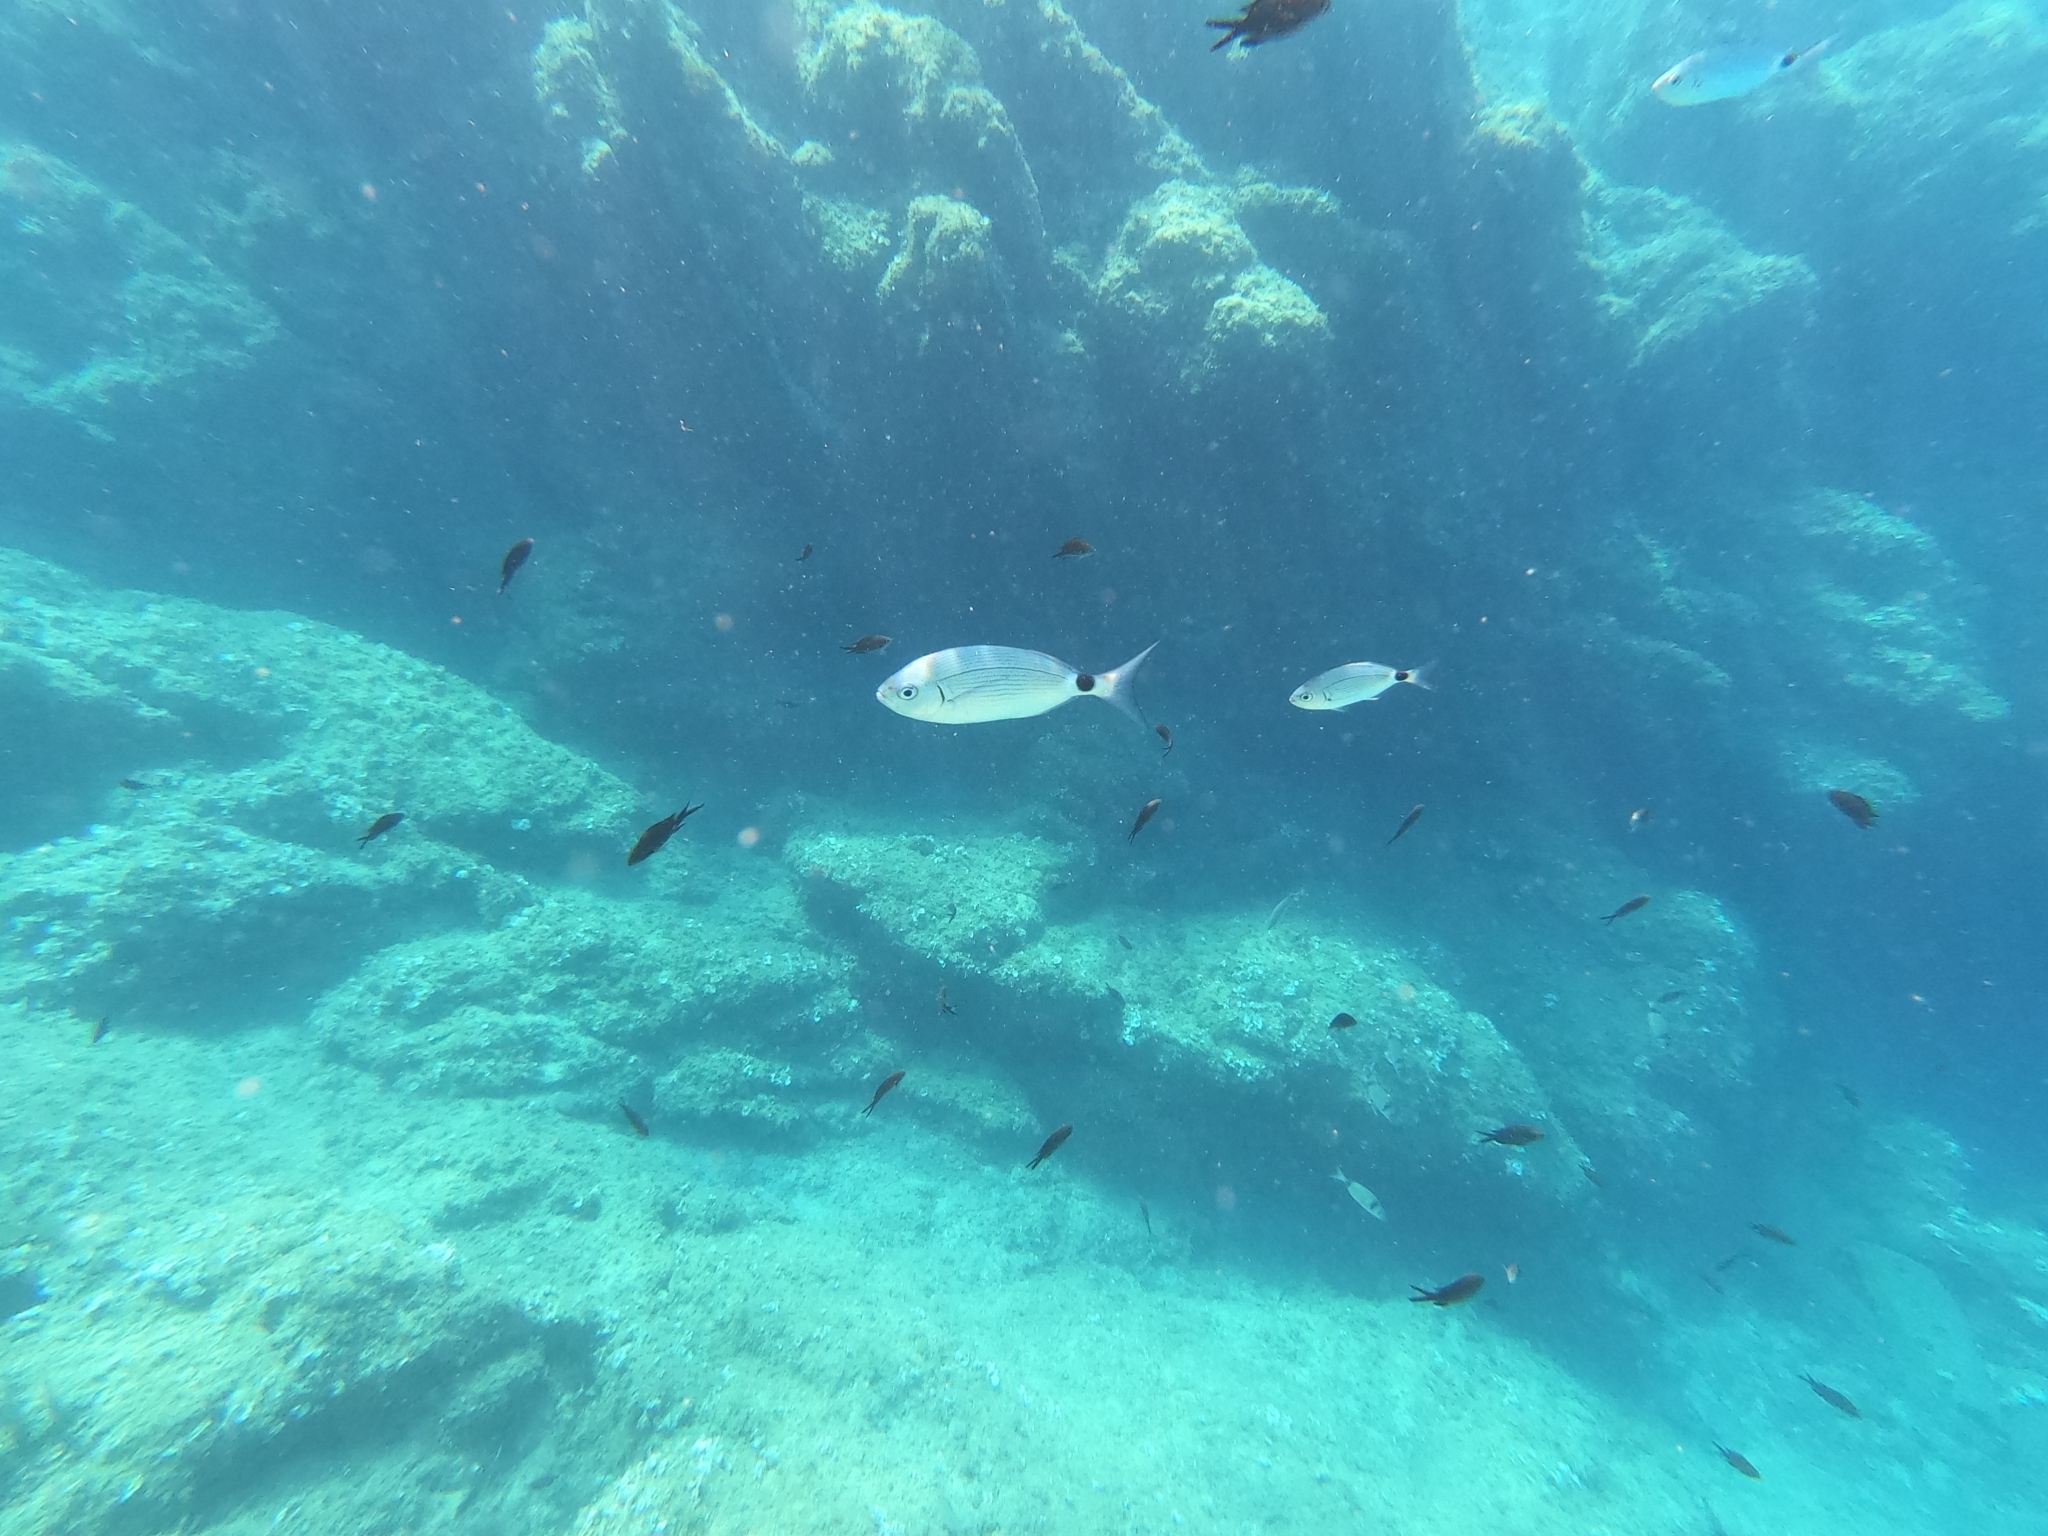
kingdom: Animalia
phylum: Chordata
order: Perciformes
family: Sparidae
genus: Oblada
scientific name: Oblada melanura
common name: Saddled seabream
